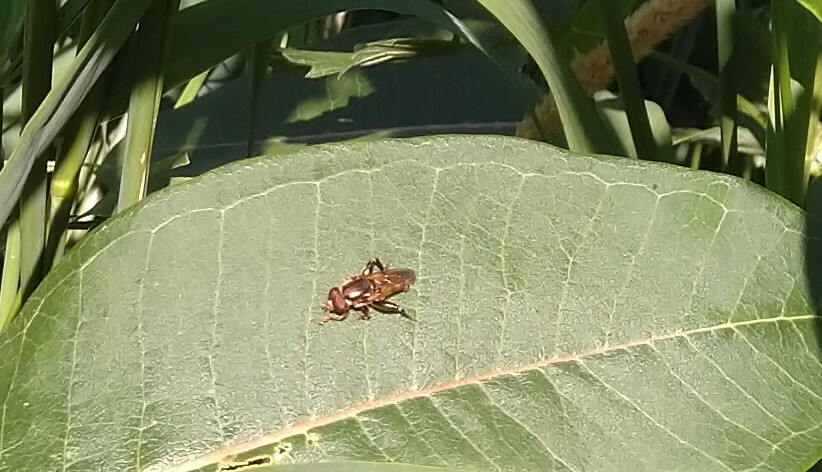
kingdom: Animalia
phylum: Arthropoda
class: Insecta
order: Diptera
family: Syrphidae
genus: Tropidia
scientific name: Tropidia quadrata
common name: Common thick-legged fly
